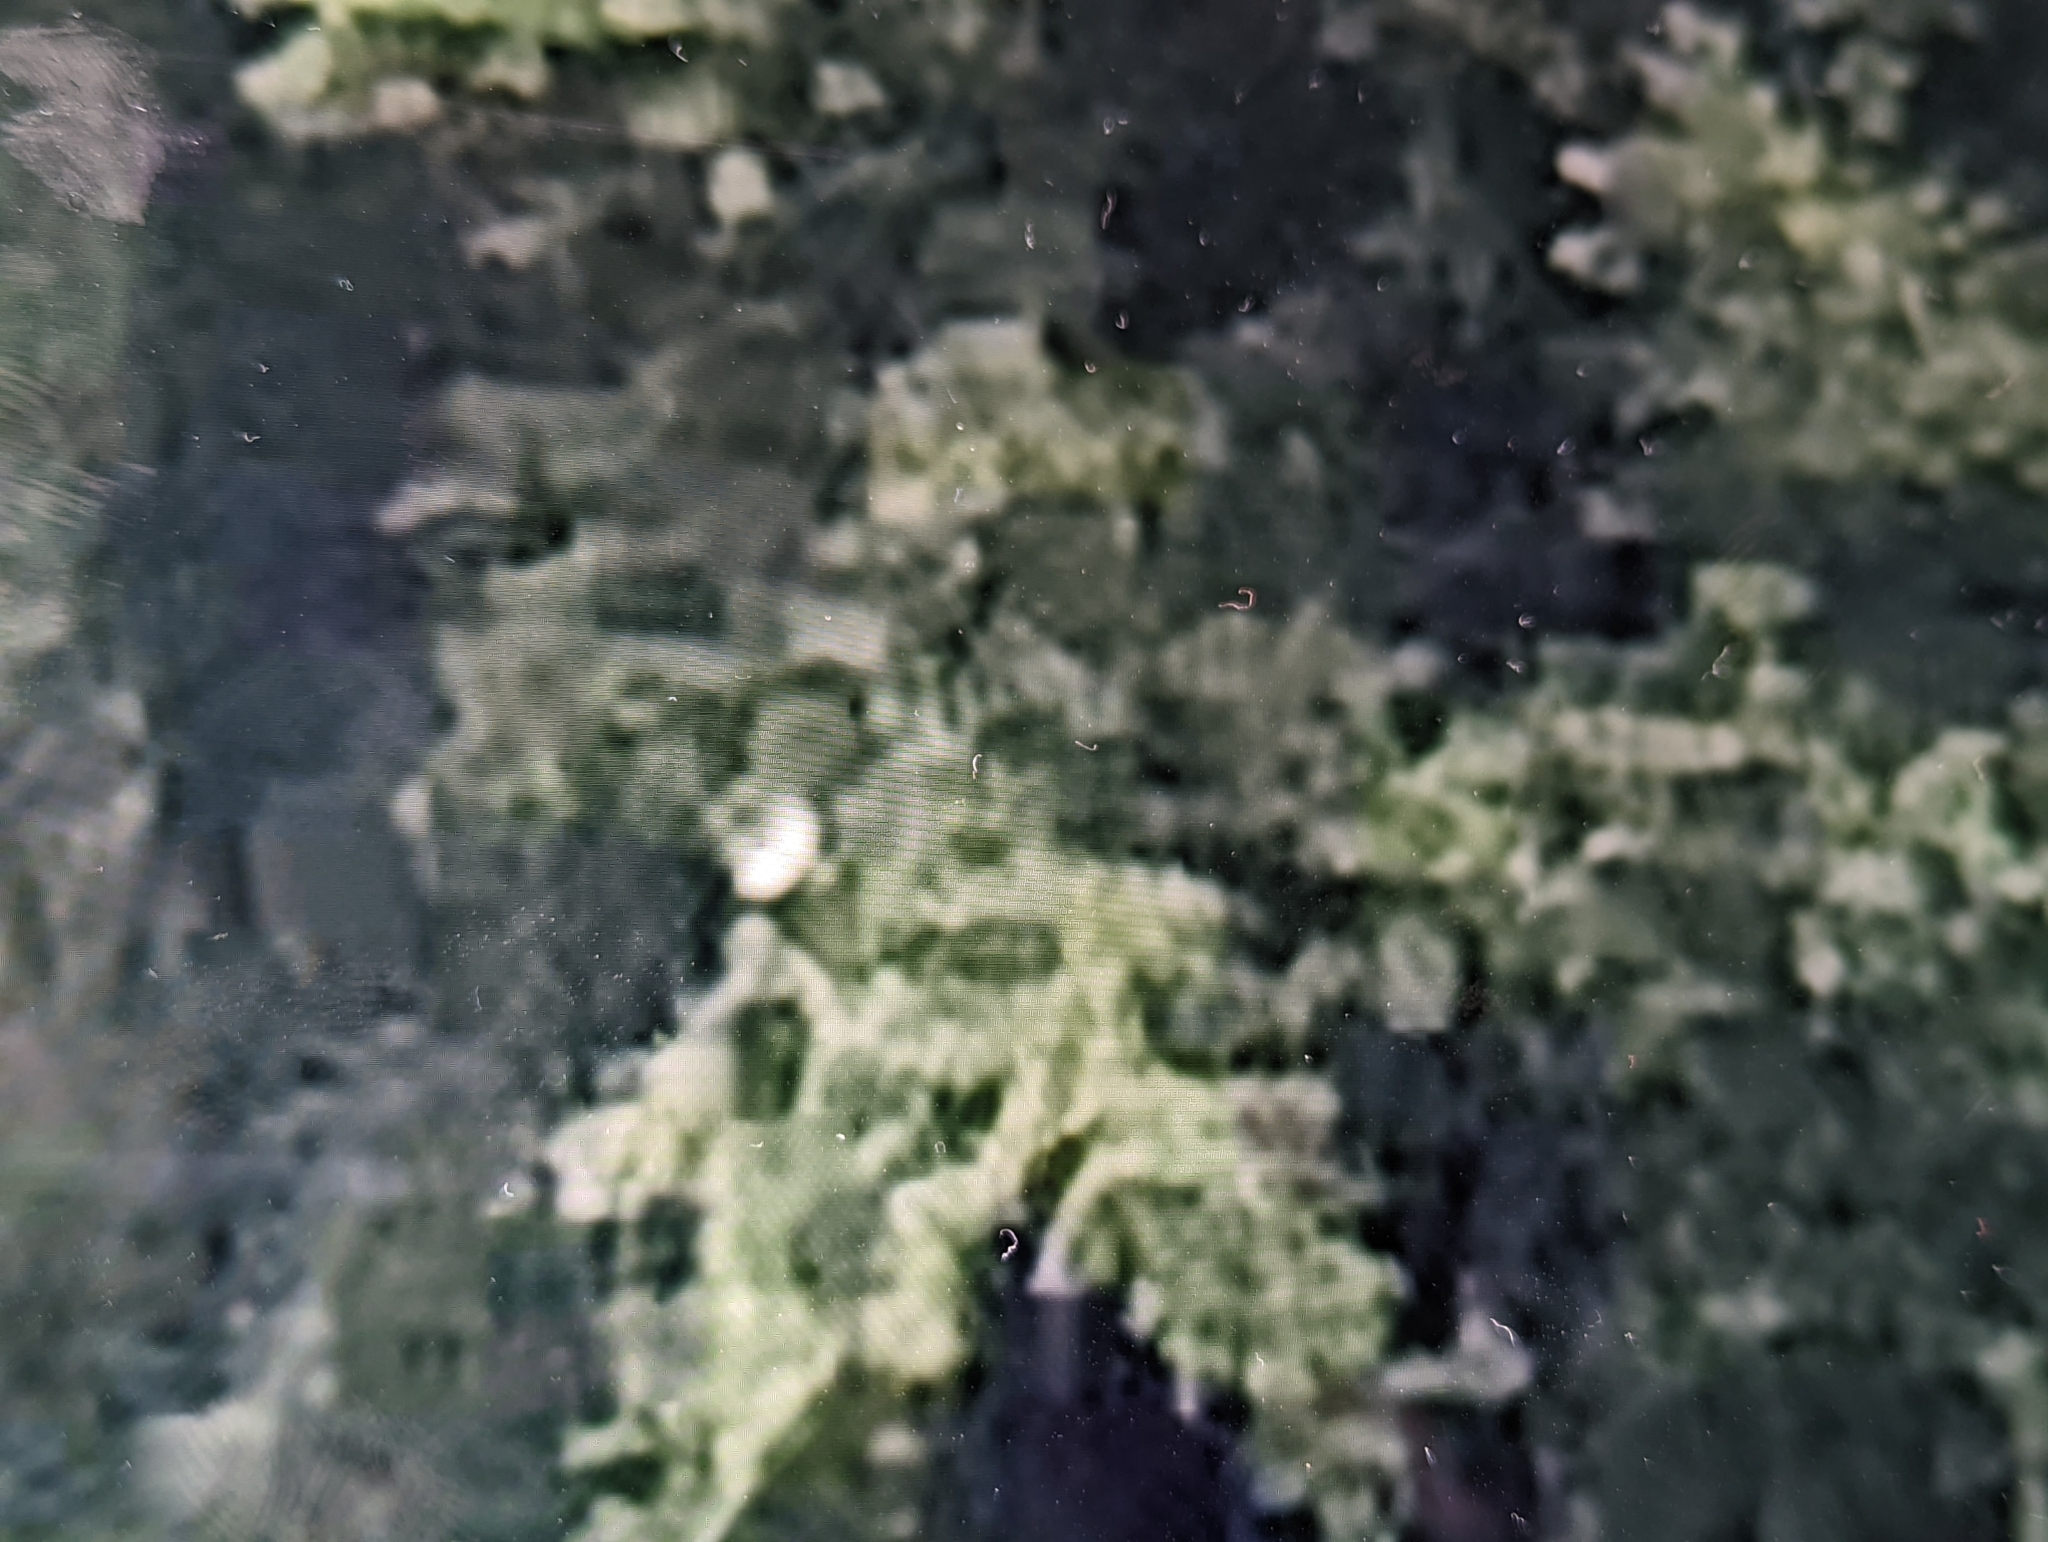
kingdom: Animalia
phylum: Chordata
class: Aves
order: Coraciiformes
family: Alcedinidae
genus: Megaceryle
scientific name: Megaceryle alcyon
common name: Belted kingfisher
